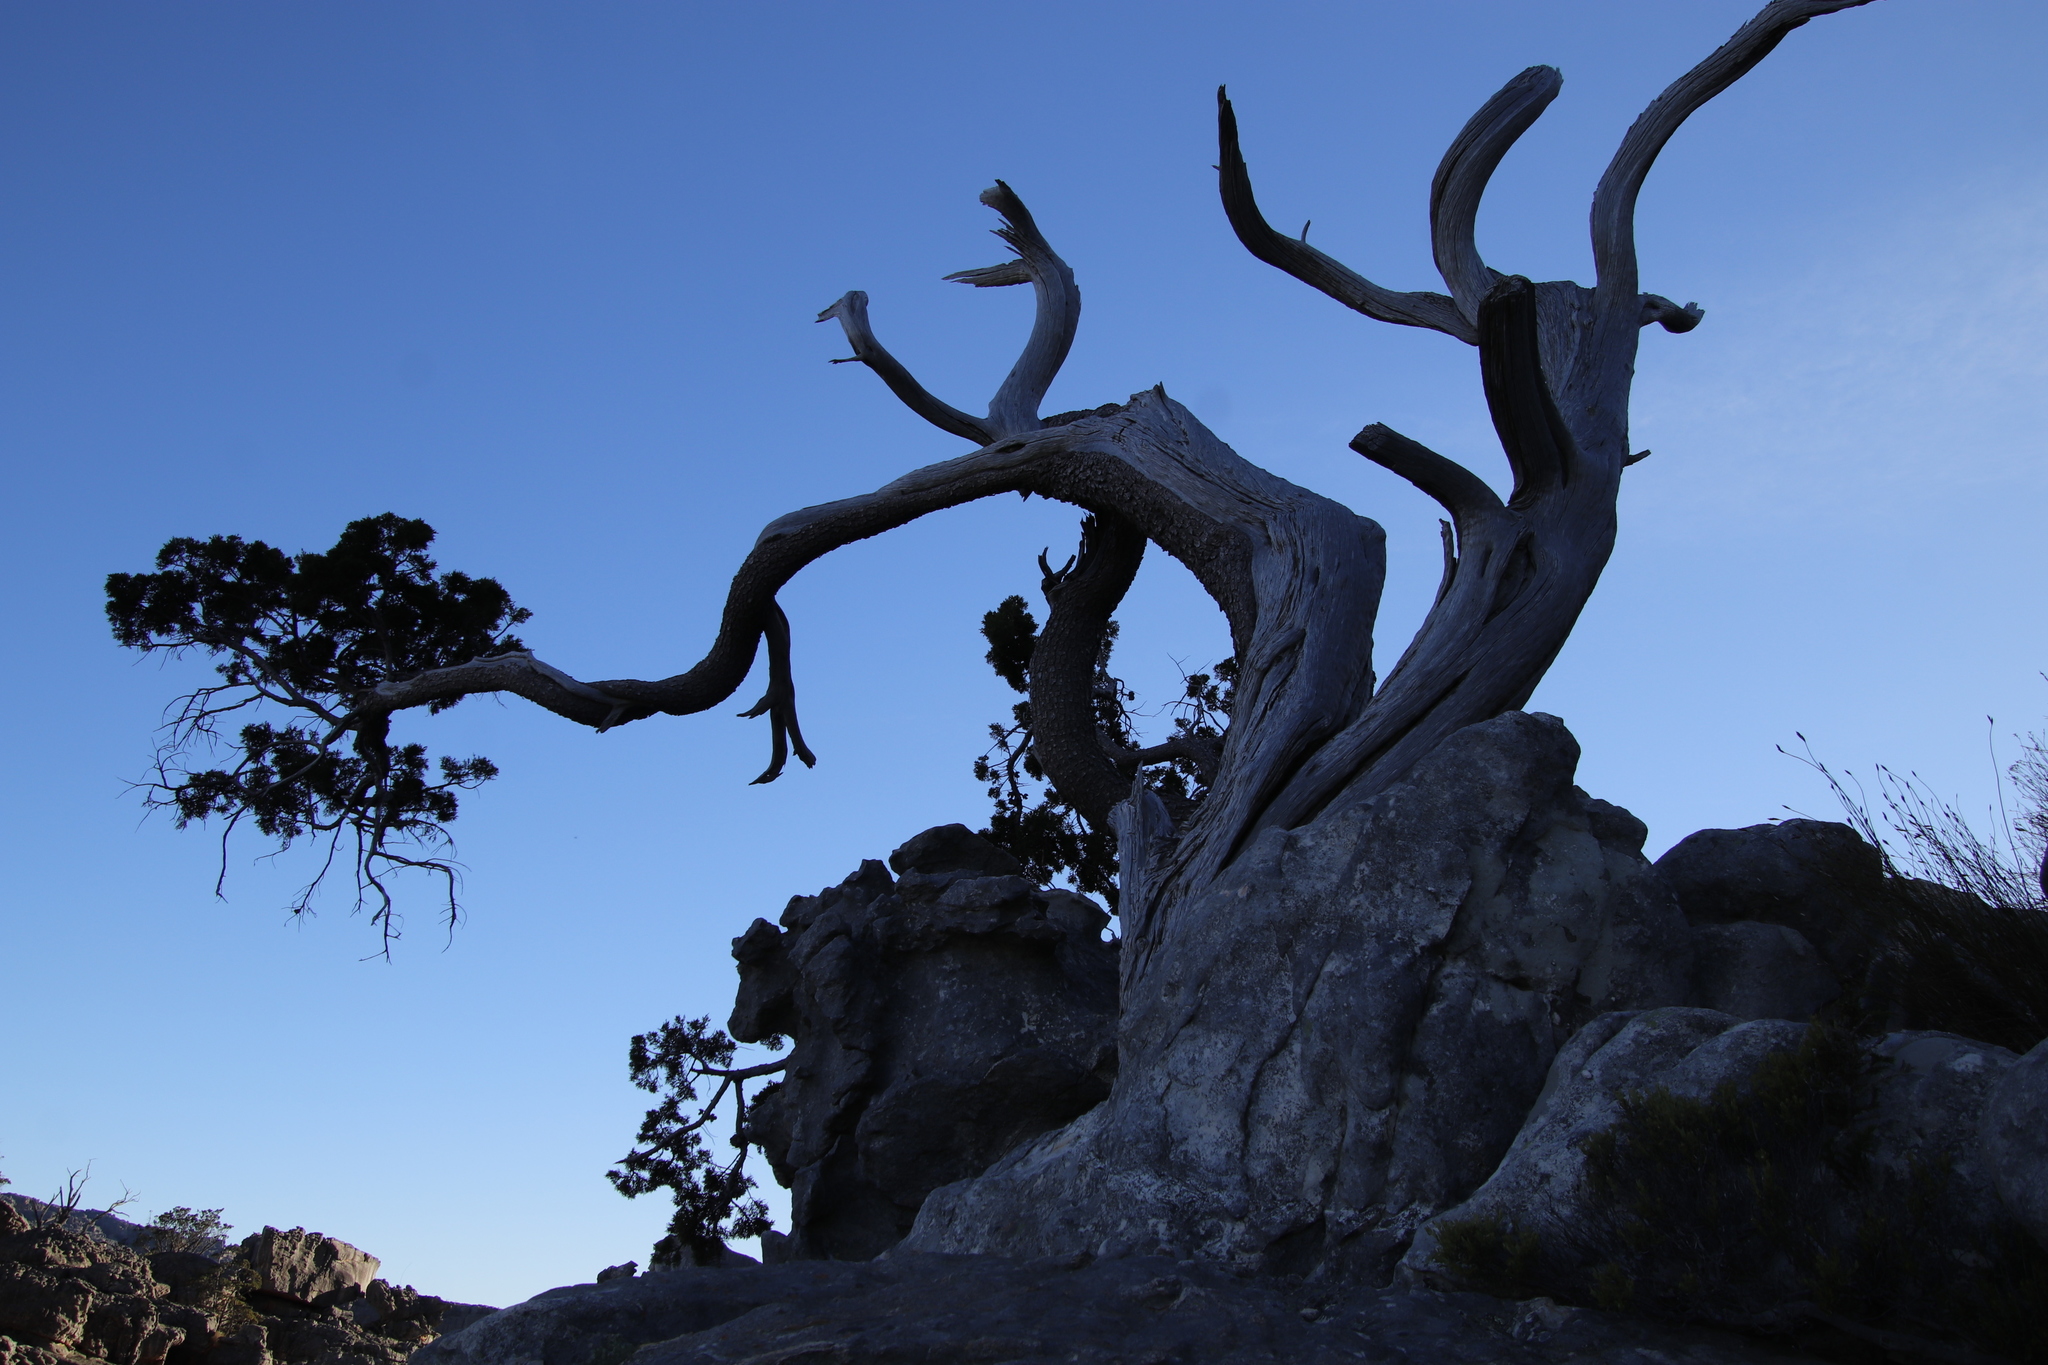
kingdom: Plantae
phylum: Tracheophyta
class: Pinopsida
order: Pinales
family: Cupressaceae
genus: Widdringtonia
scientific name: Widdringtonia nodiflora
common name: Cape cypress
